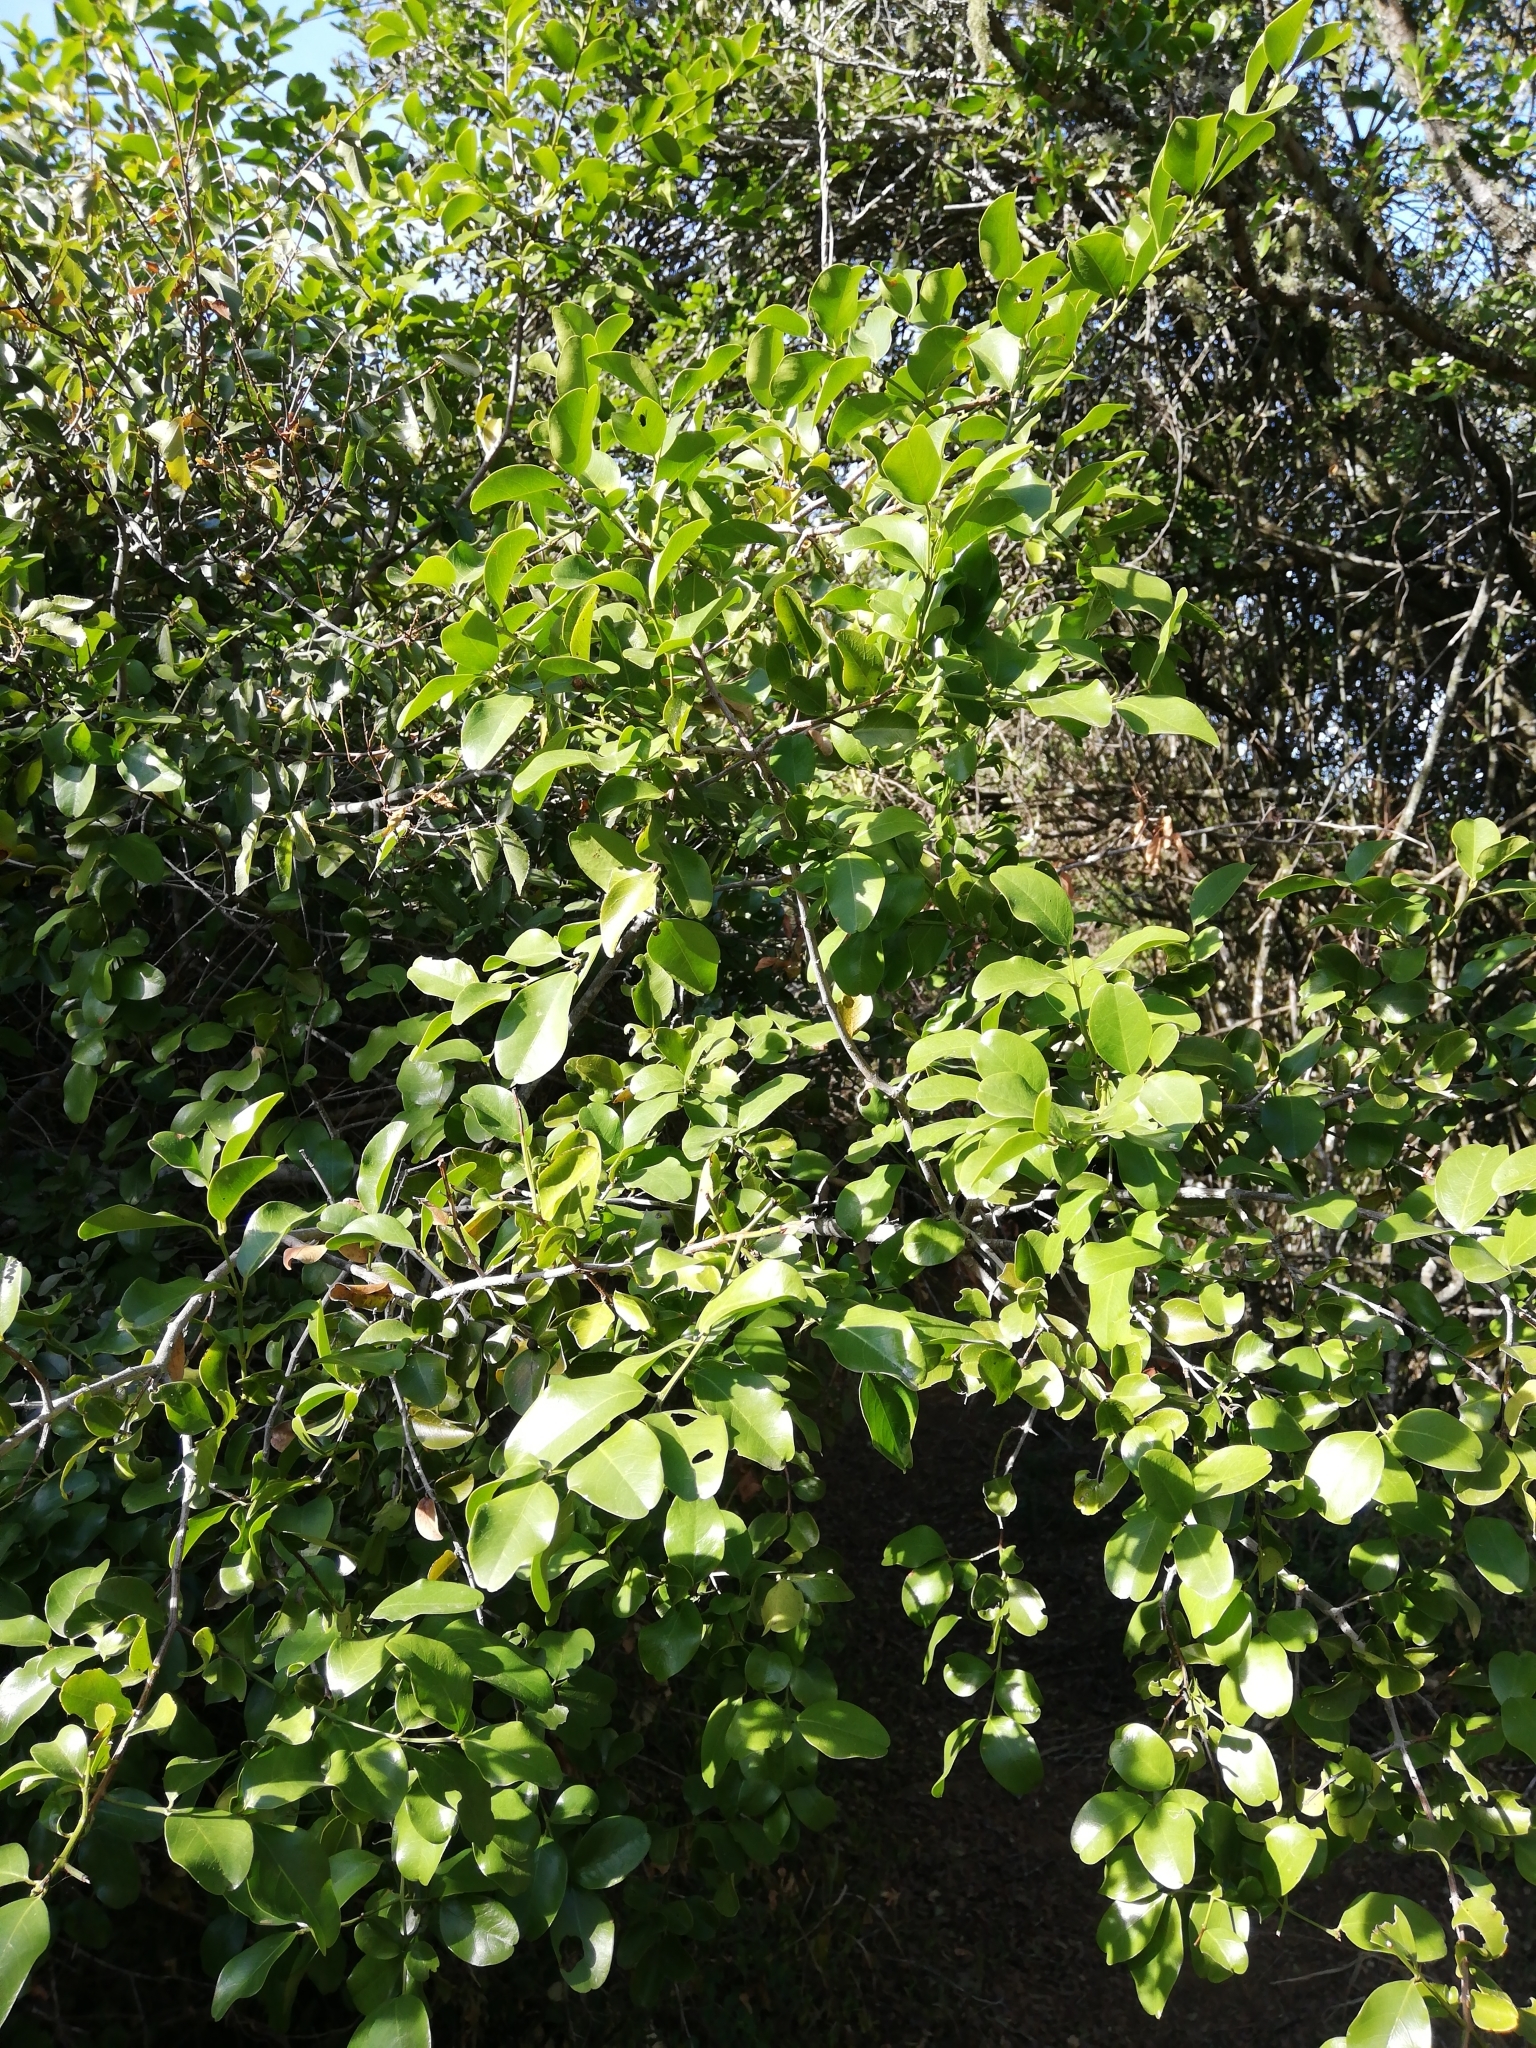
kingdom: Plantae
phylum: Tracheophyta
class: Magnoliopsida
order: Rosales
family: Rhamnaceae
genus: Scutia
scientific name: Scutia myrtina
